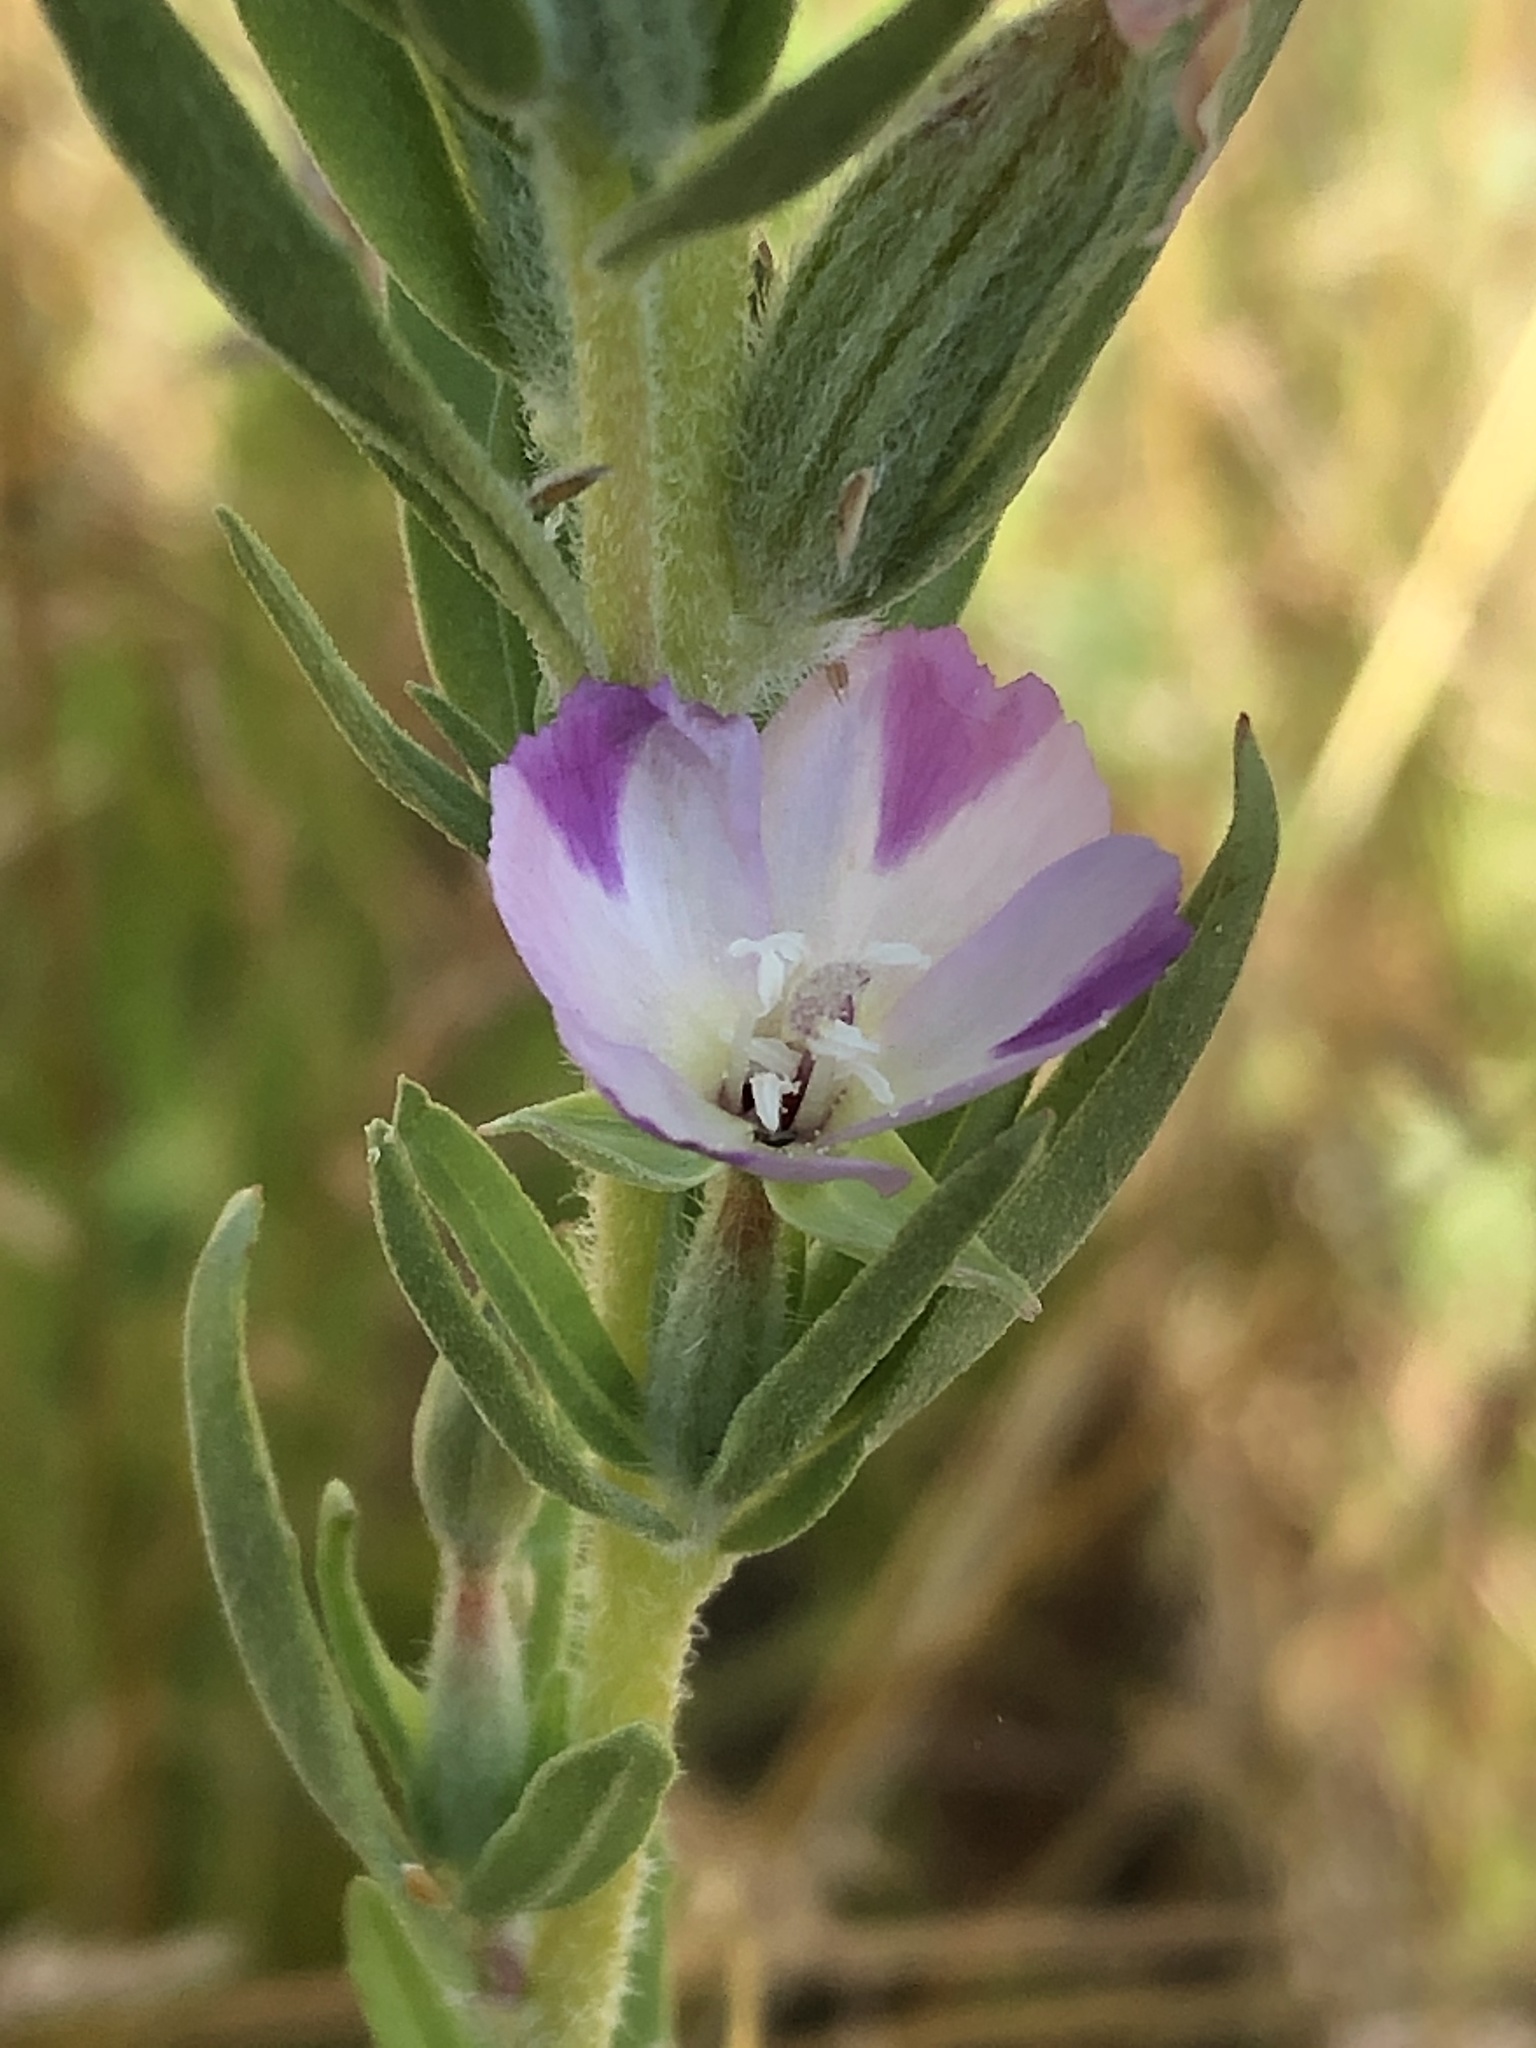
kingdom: Plantae
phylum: Tracheophyta
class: Magnoliopsida
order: Myrtales
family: Onagraceae
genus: Clarkia
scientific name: Clarkia purpurea
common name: Purple clarkia
